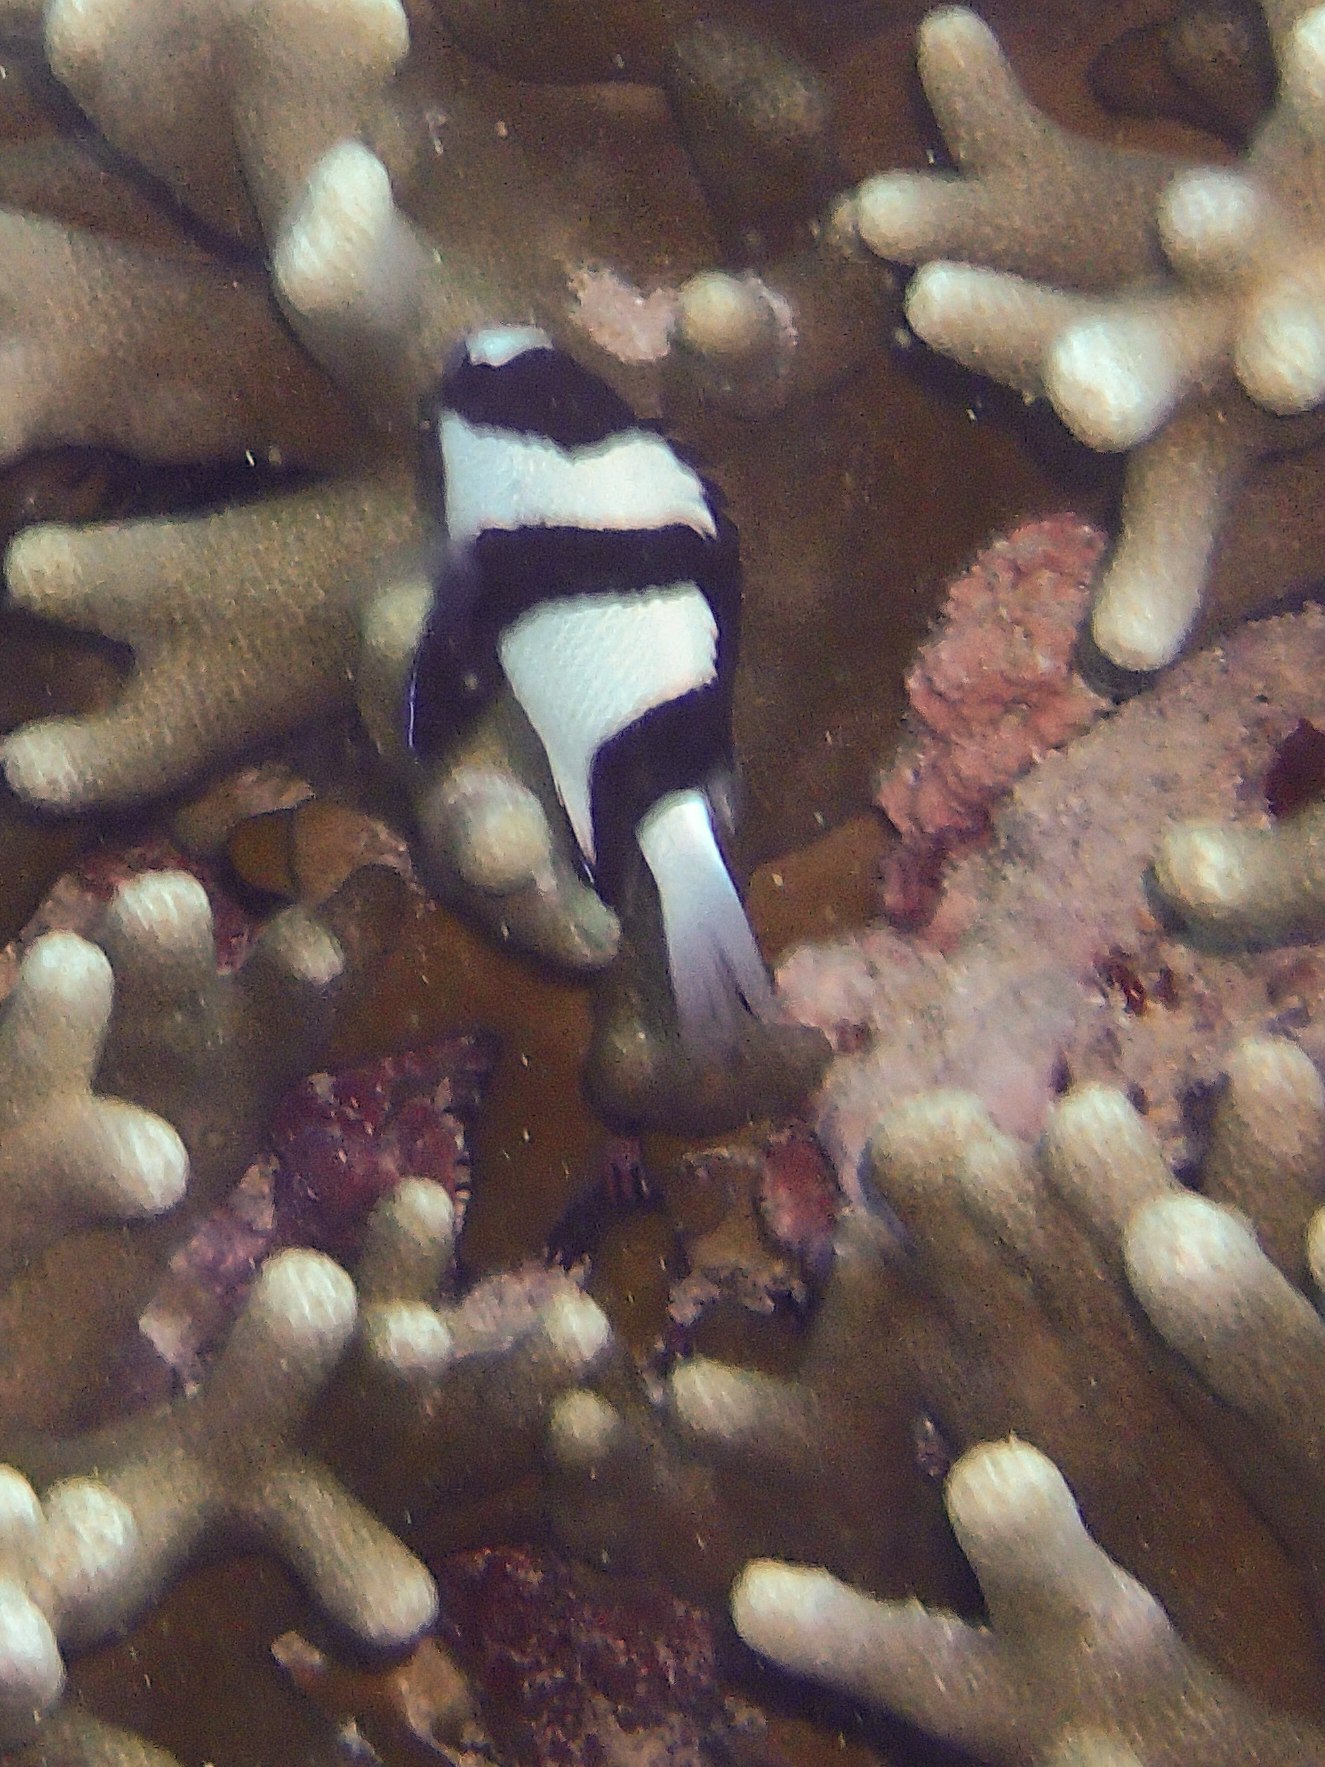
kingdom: Animalia
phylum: Chordata
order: Perciformes
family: Pomacentridae
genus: Dascyllus
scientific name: Dascyllus aruanus
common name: Humbug dascyllus
